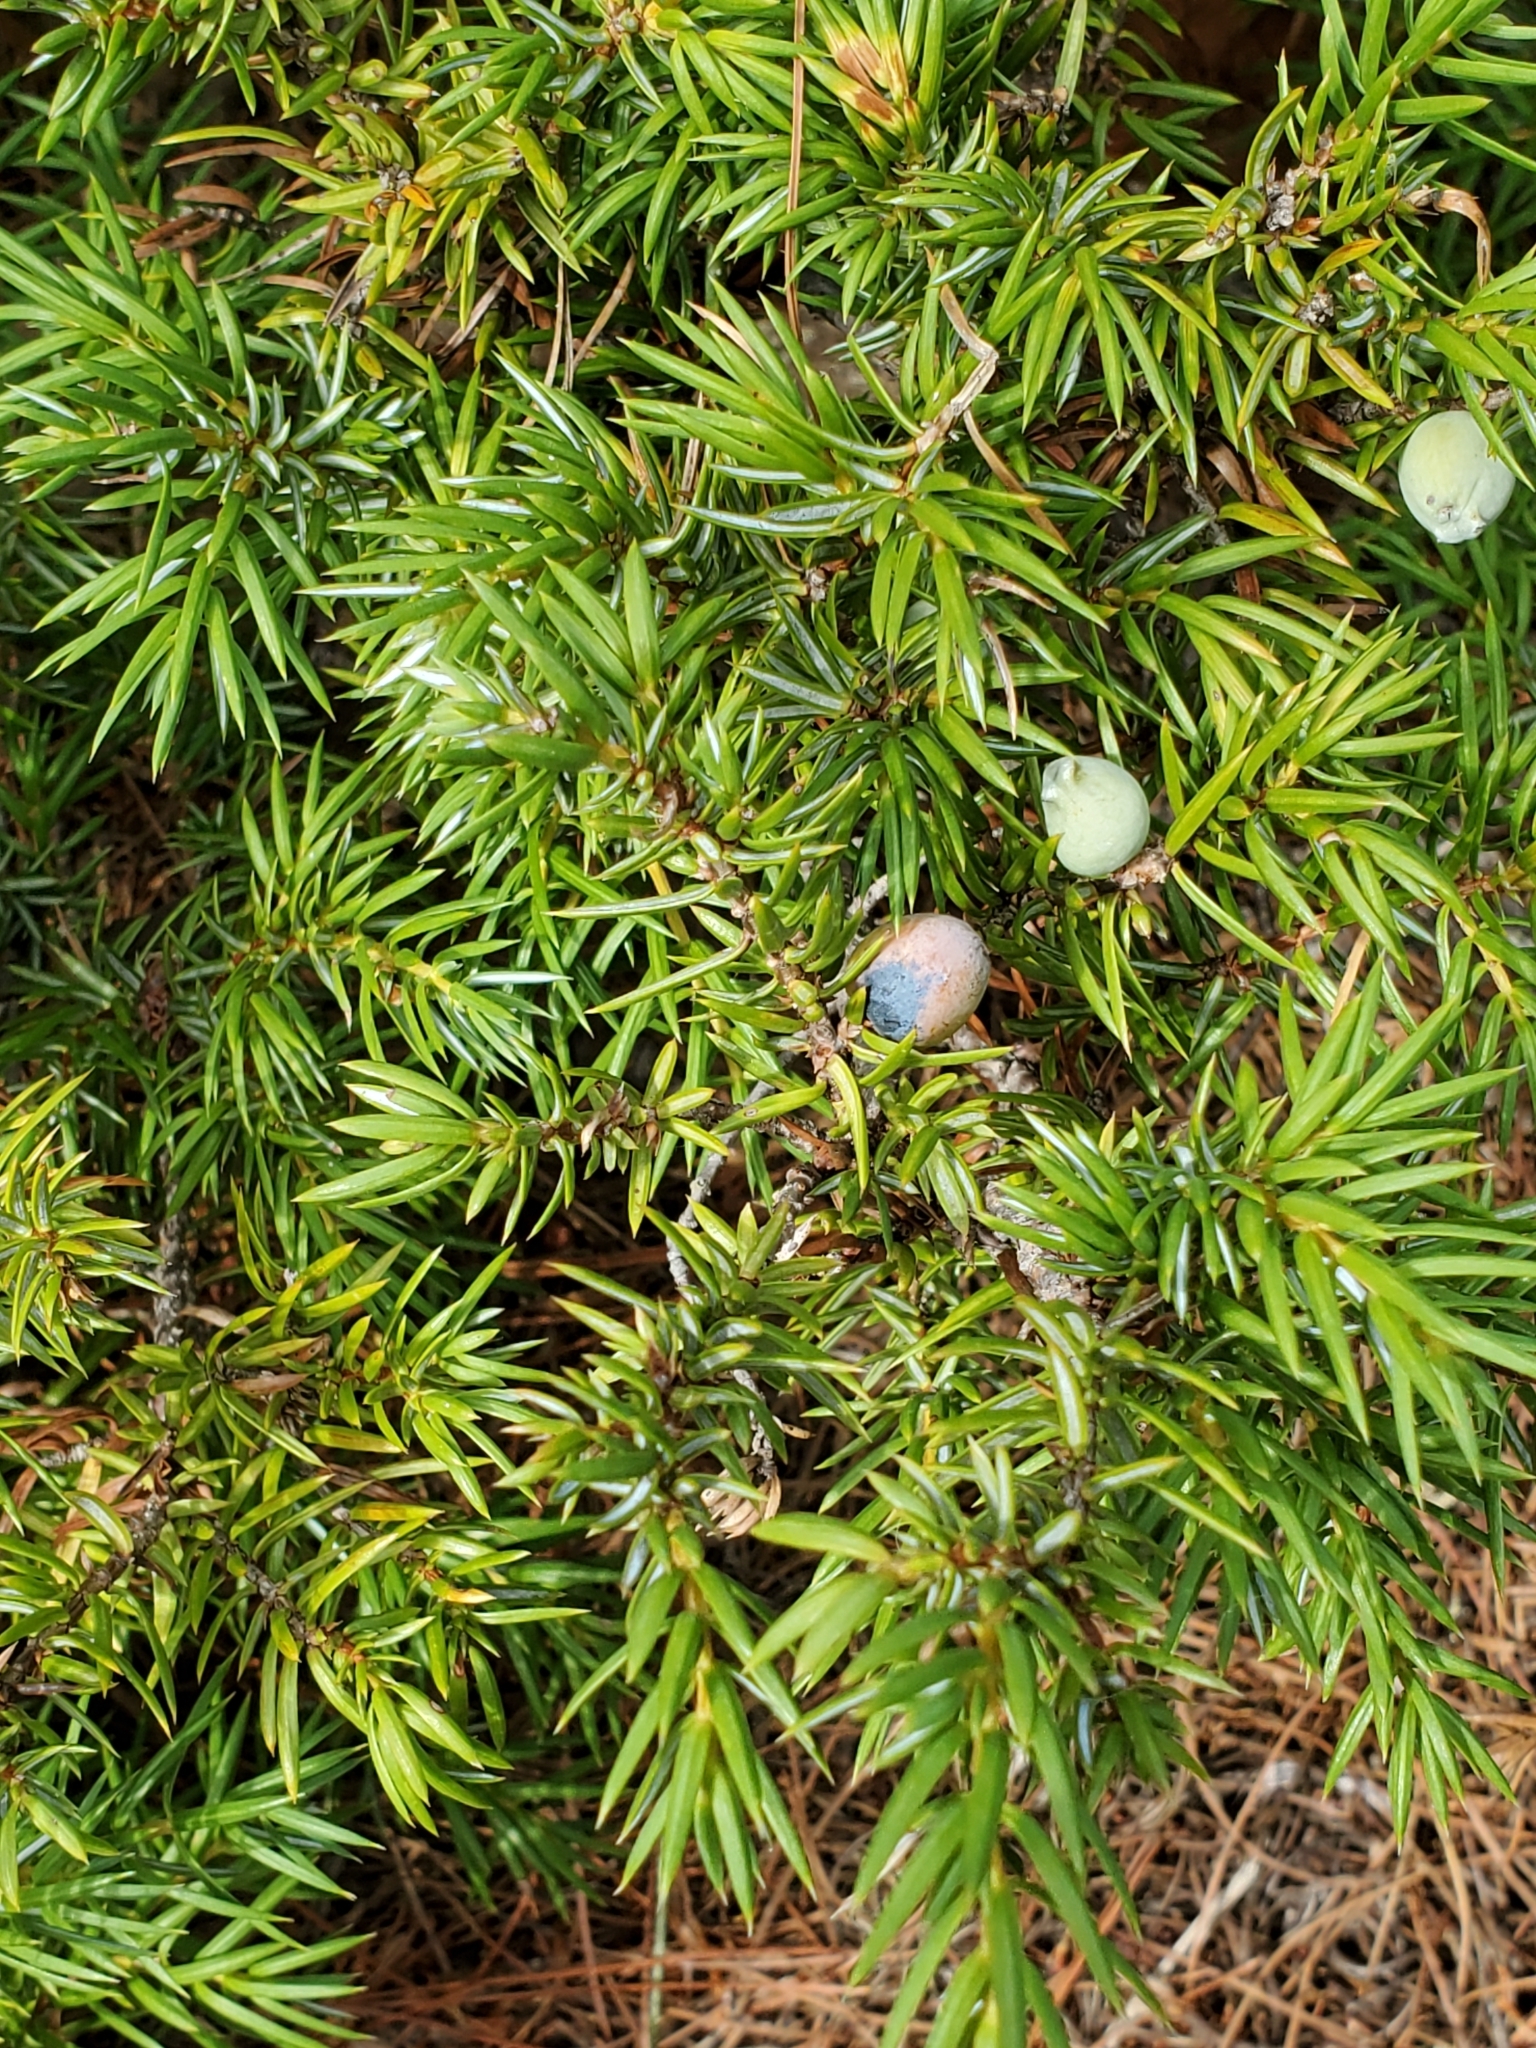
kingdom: Plantae
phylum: Tracheophyta
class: Pinopsida
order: Pinales
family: Cupressaceae
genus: Juniperus
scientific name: Juniperus communis
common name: Common juniper
